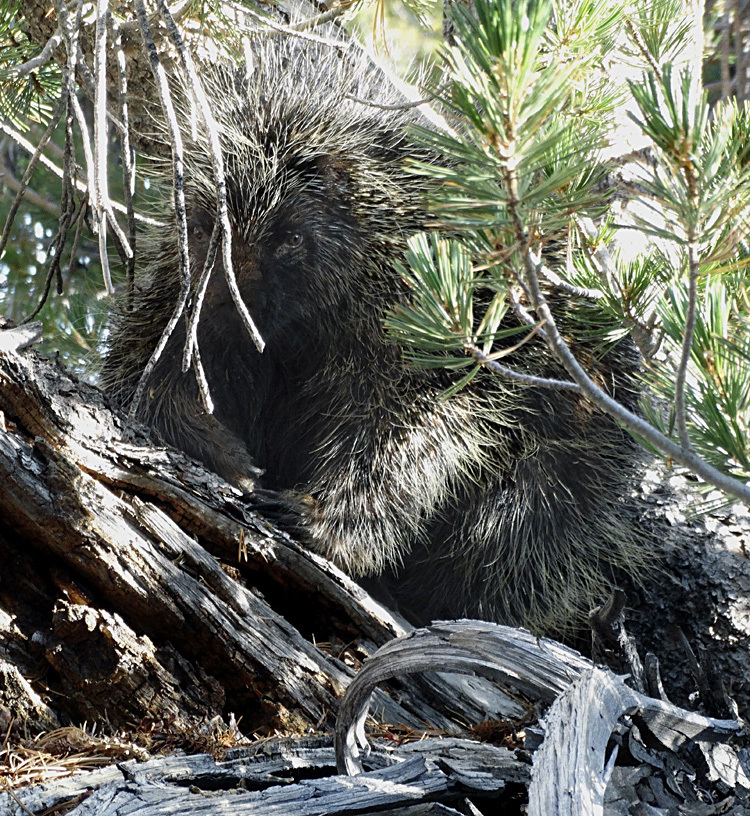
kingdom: Animalia
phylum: Chordata
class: Mammalia
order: Rodentia
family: Erethizontidae
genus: Erethizon
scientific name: Erethizon dorsatus
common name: North american porcupine
